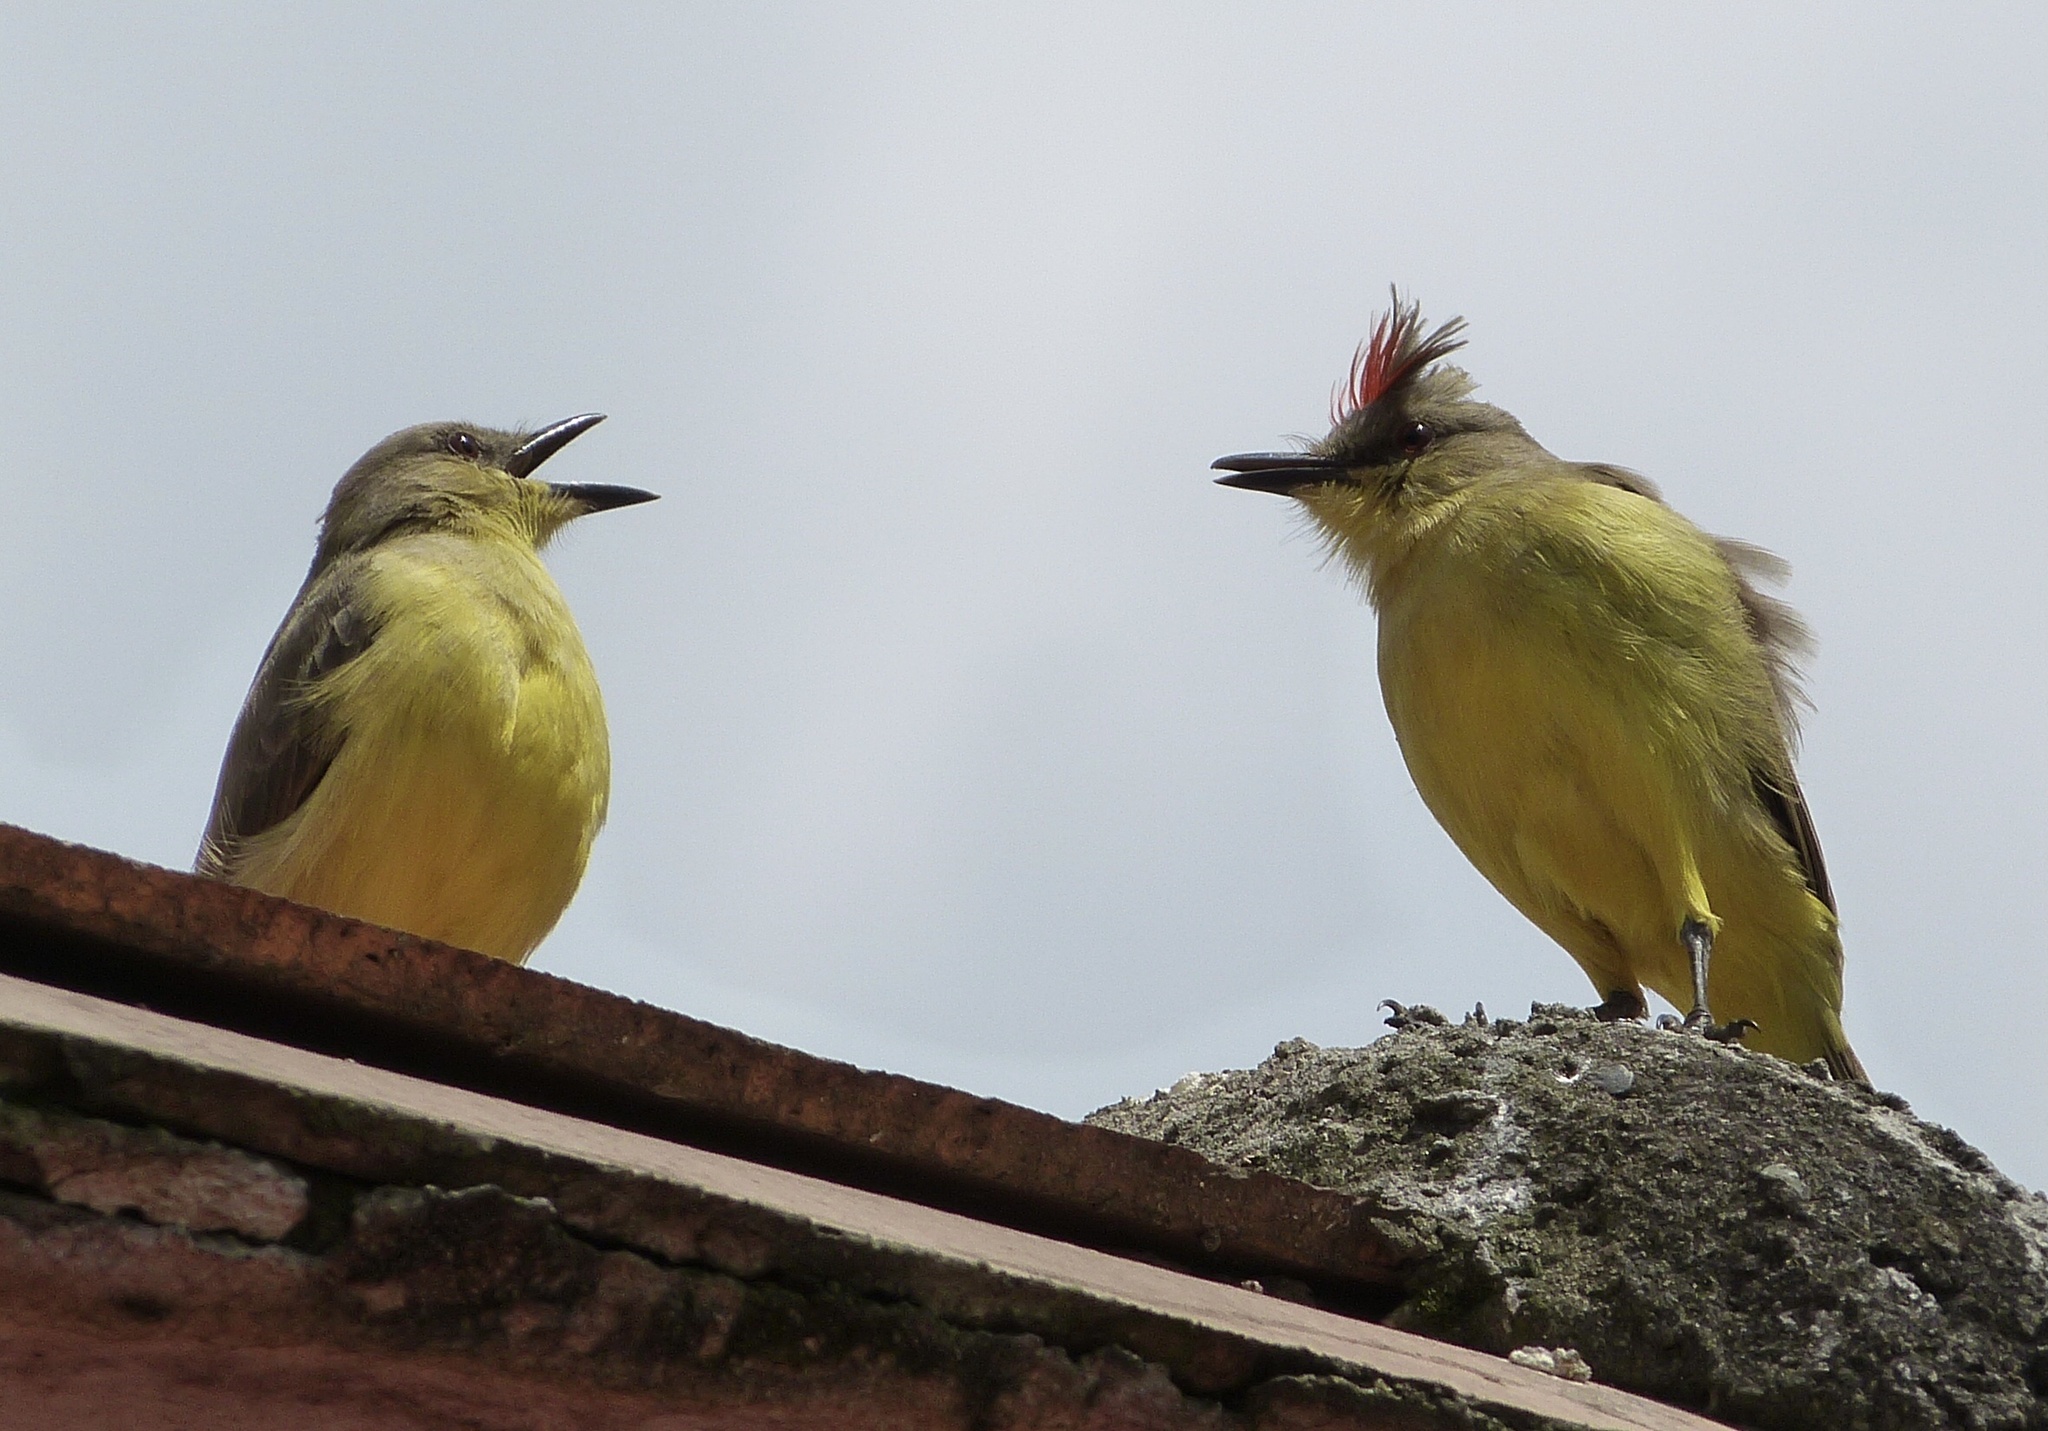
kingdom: Animalia
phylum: Chordata
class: Aves
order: Passeriformes
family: Tyrannidae
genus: Machetornis
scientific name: Machetornis rixosa
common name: Cattle tyrant
